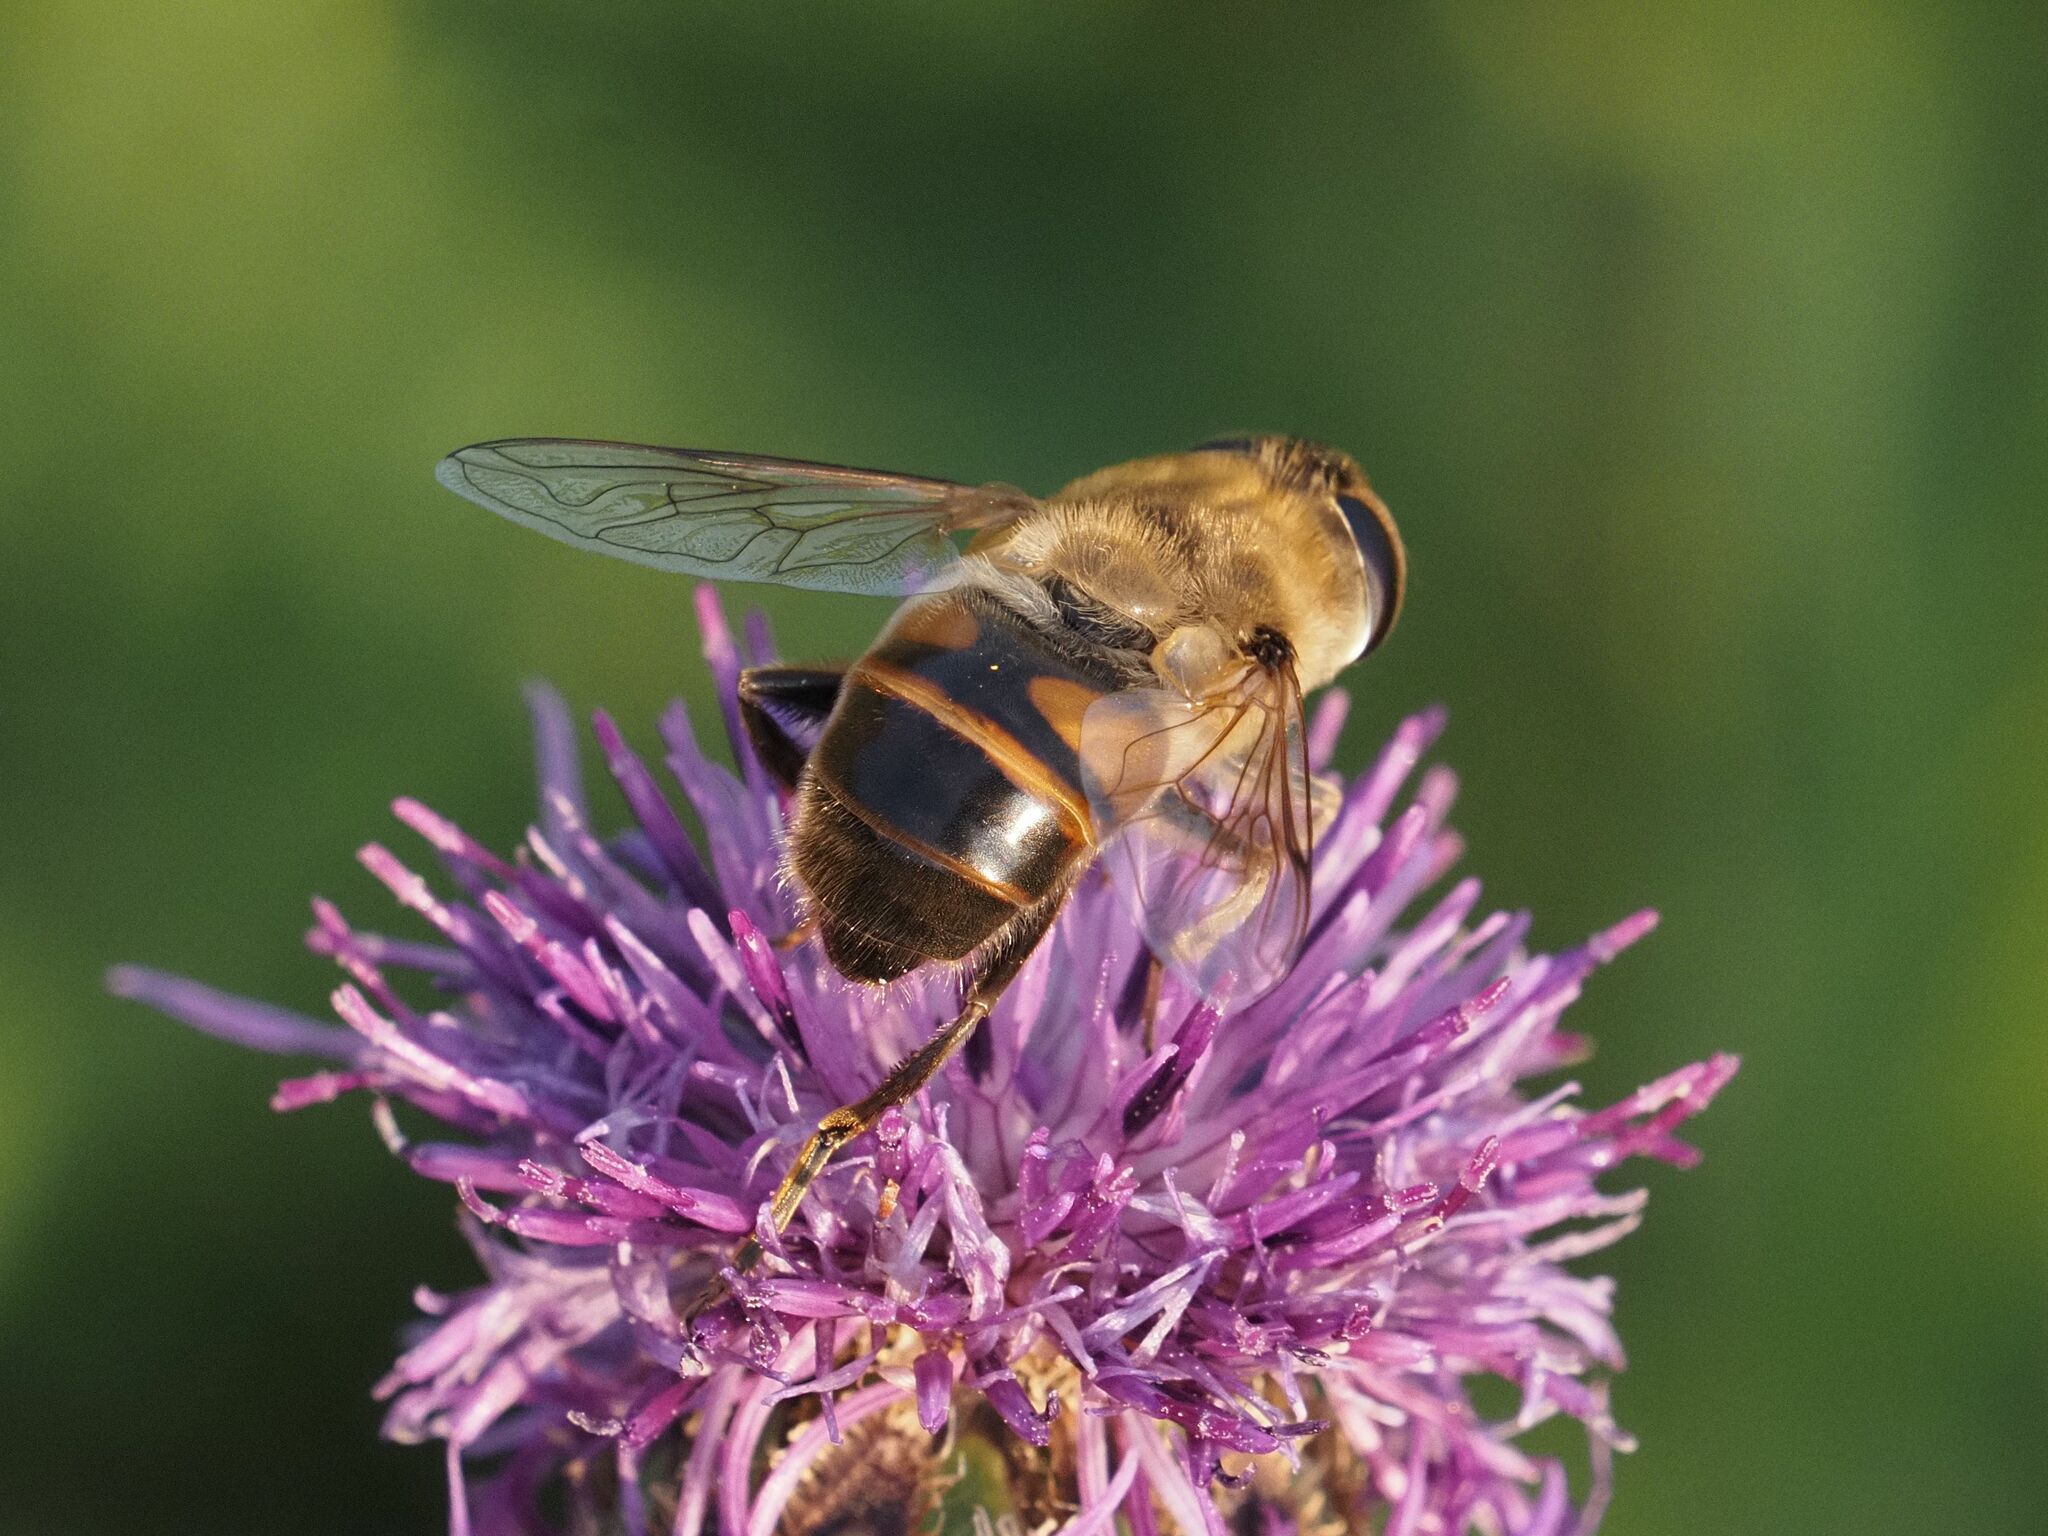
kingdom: Animalia
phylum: Arthropoda
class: Insecta
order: Diptera
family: Syrphidae
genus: Eristalis
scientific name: Eristalis tenax
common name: Drone fly
